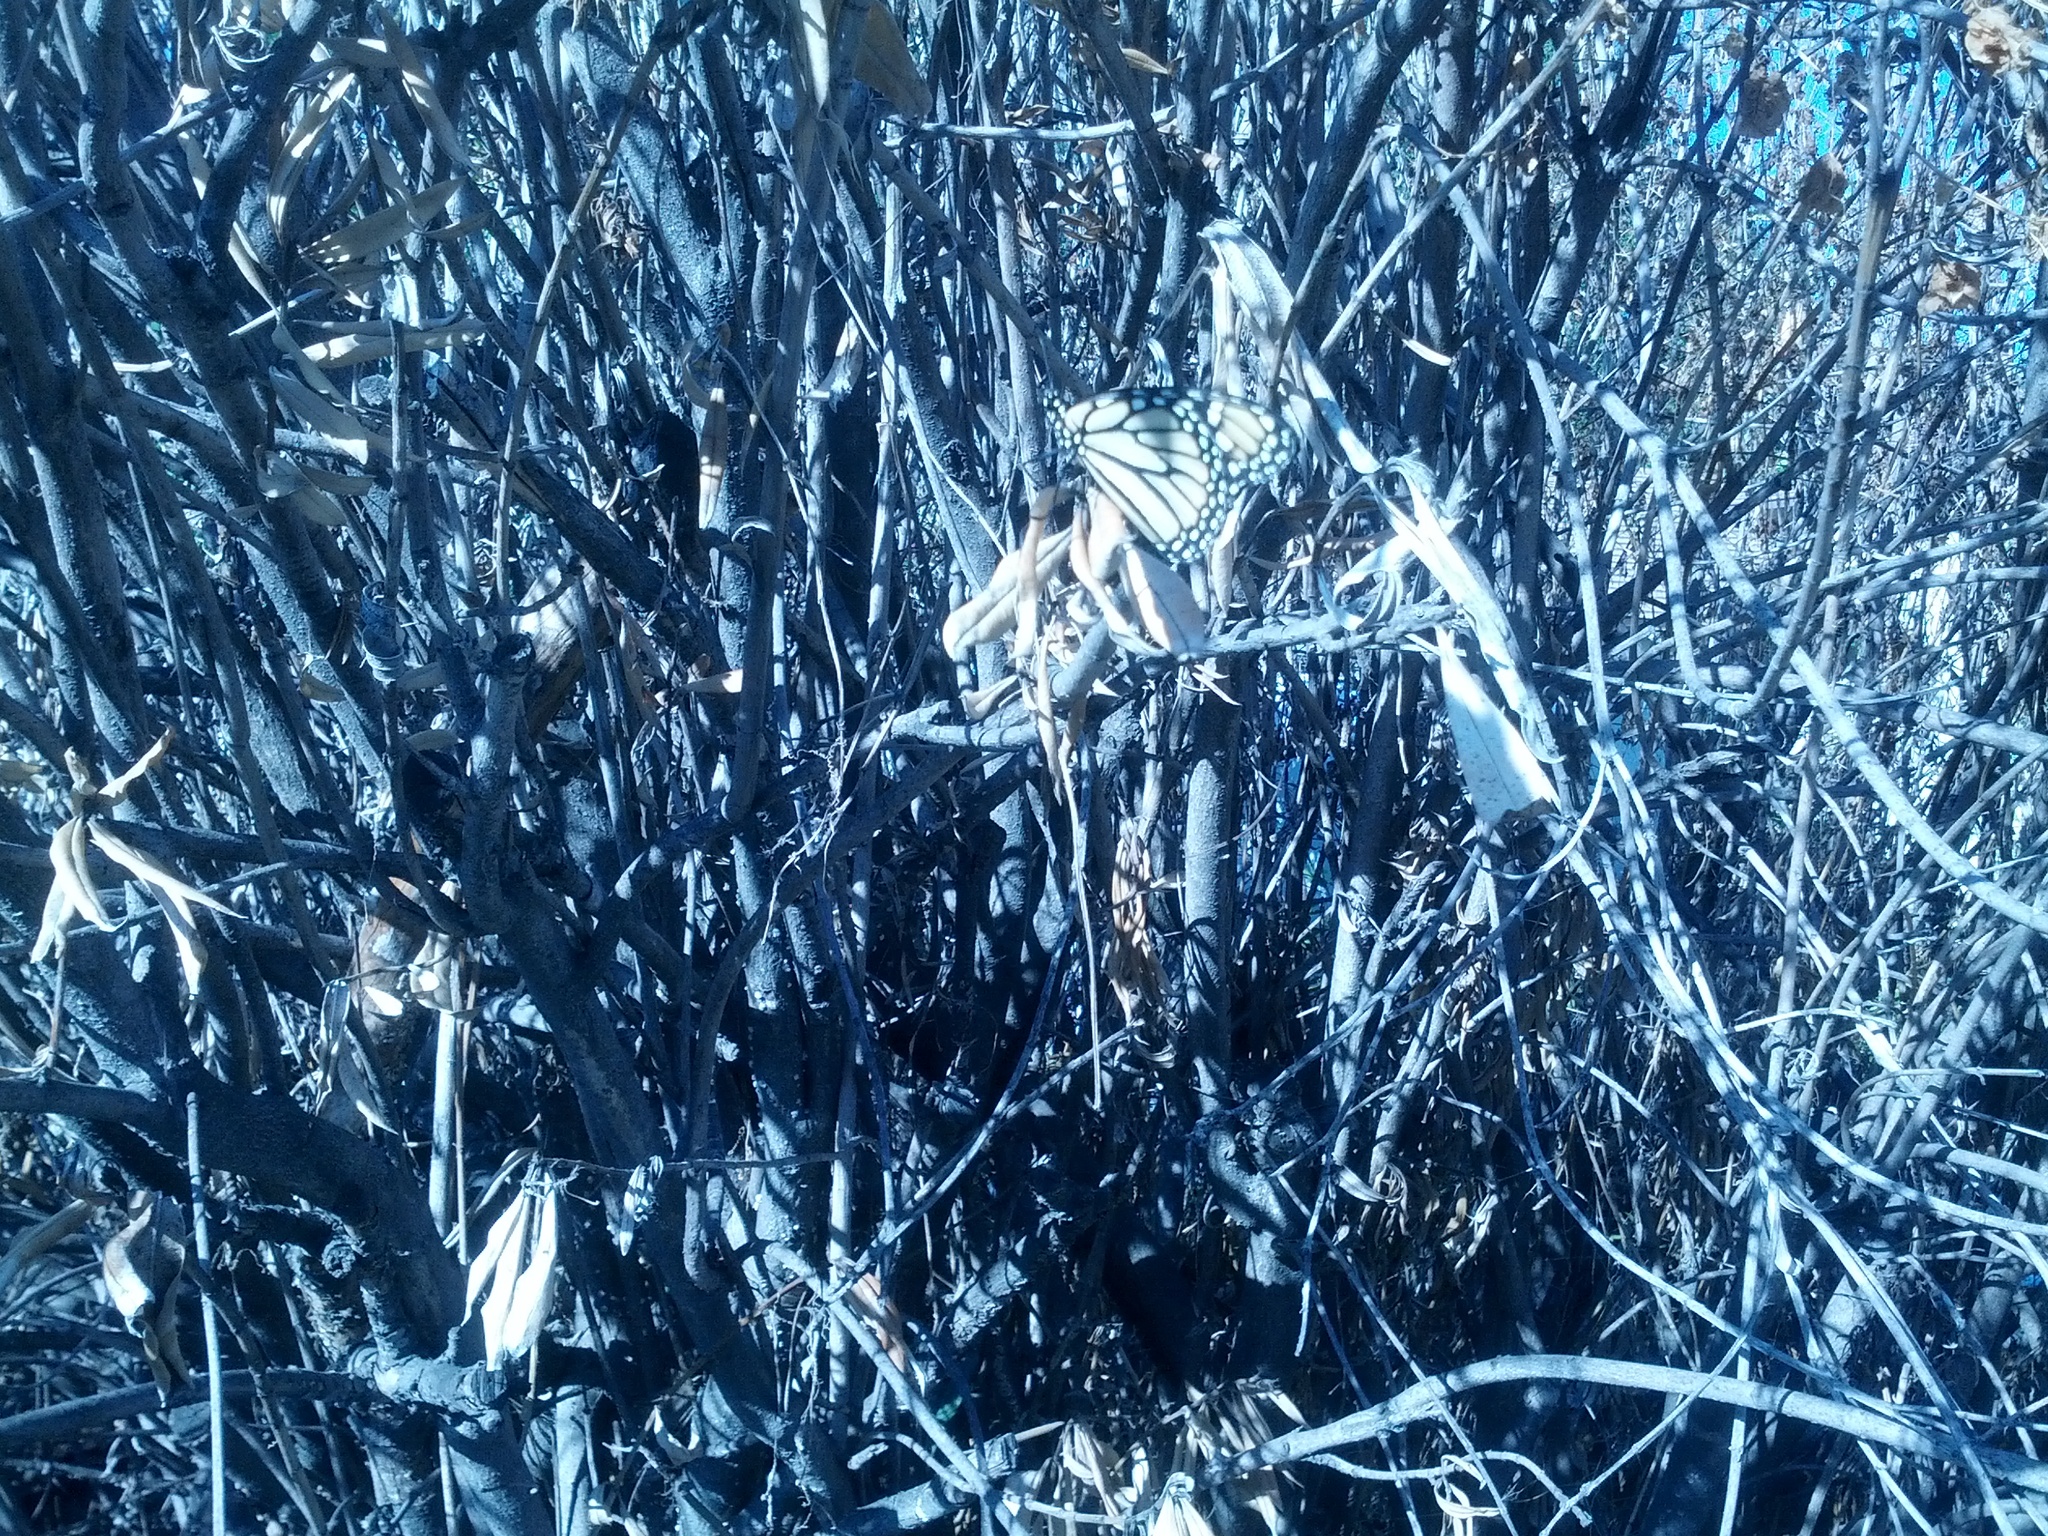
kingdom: Animalia
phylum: Arthropoda
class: Insecta
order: Lepidoptera
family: Nymphalidae
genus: Danaus
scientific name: Danaus plexippus
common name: Monarch
